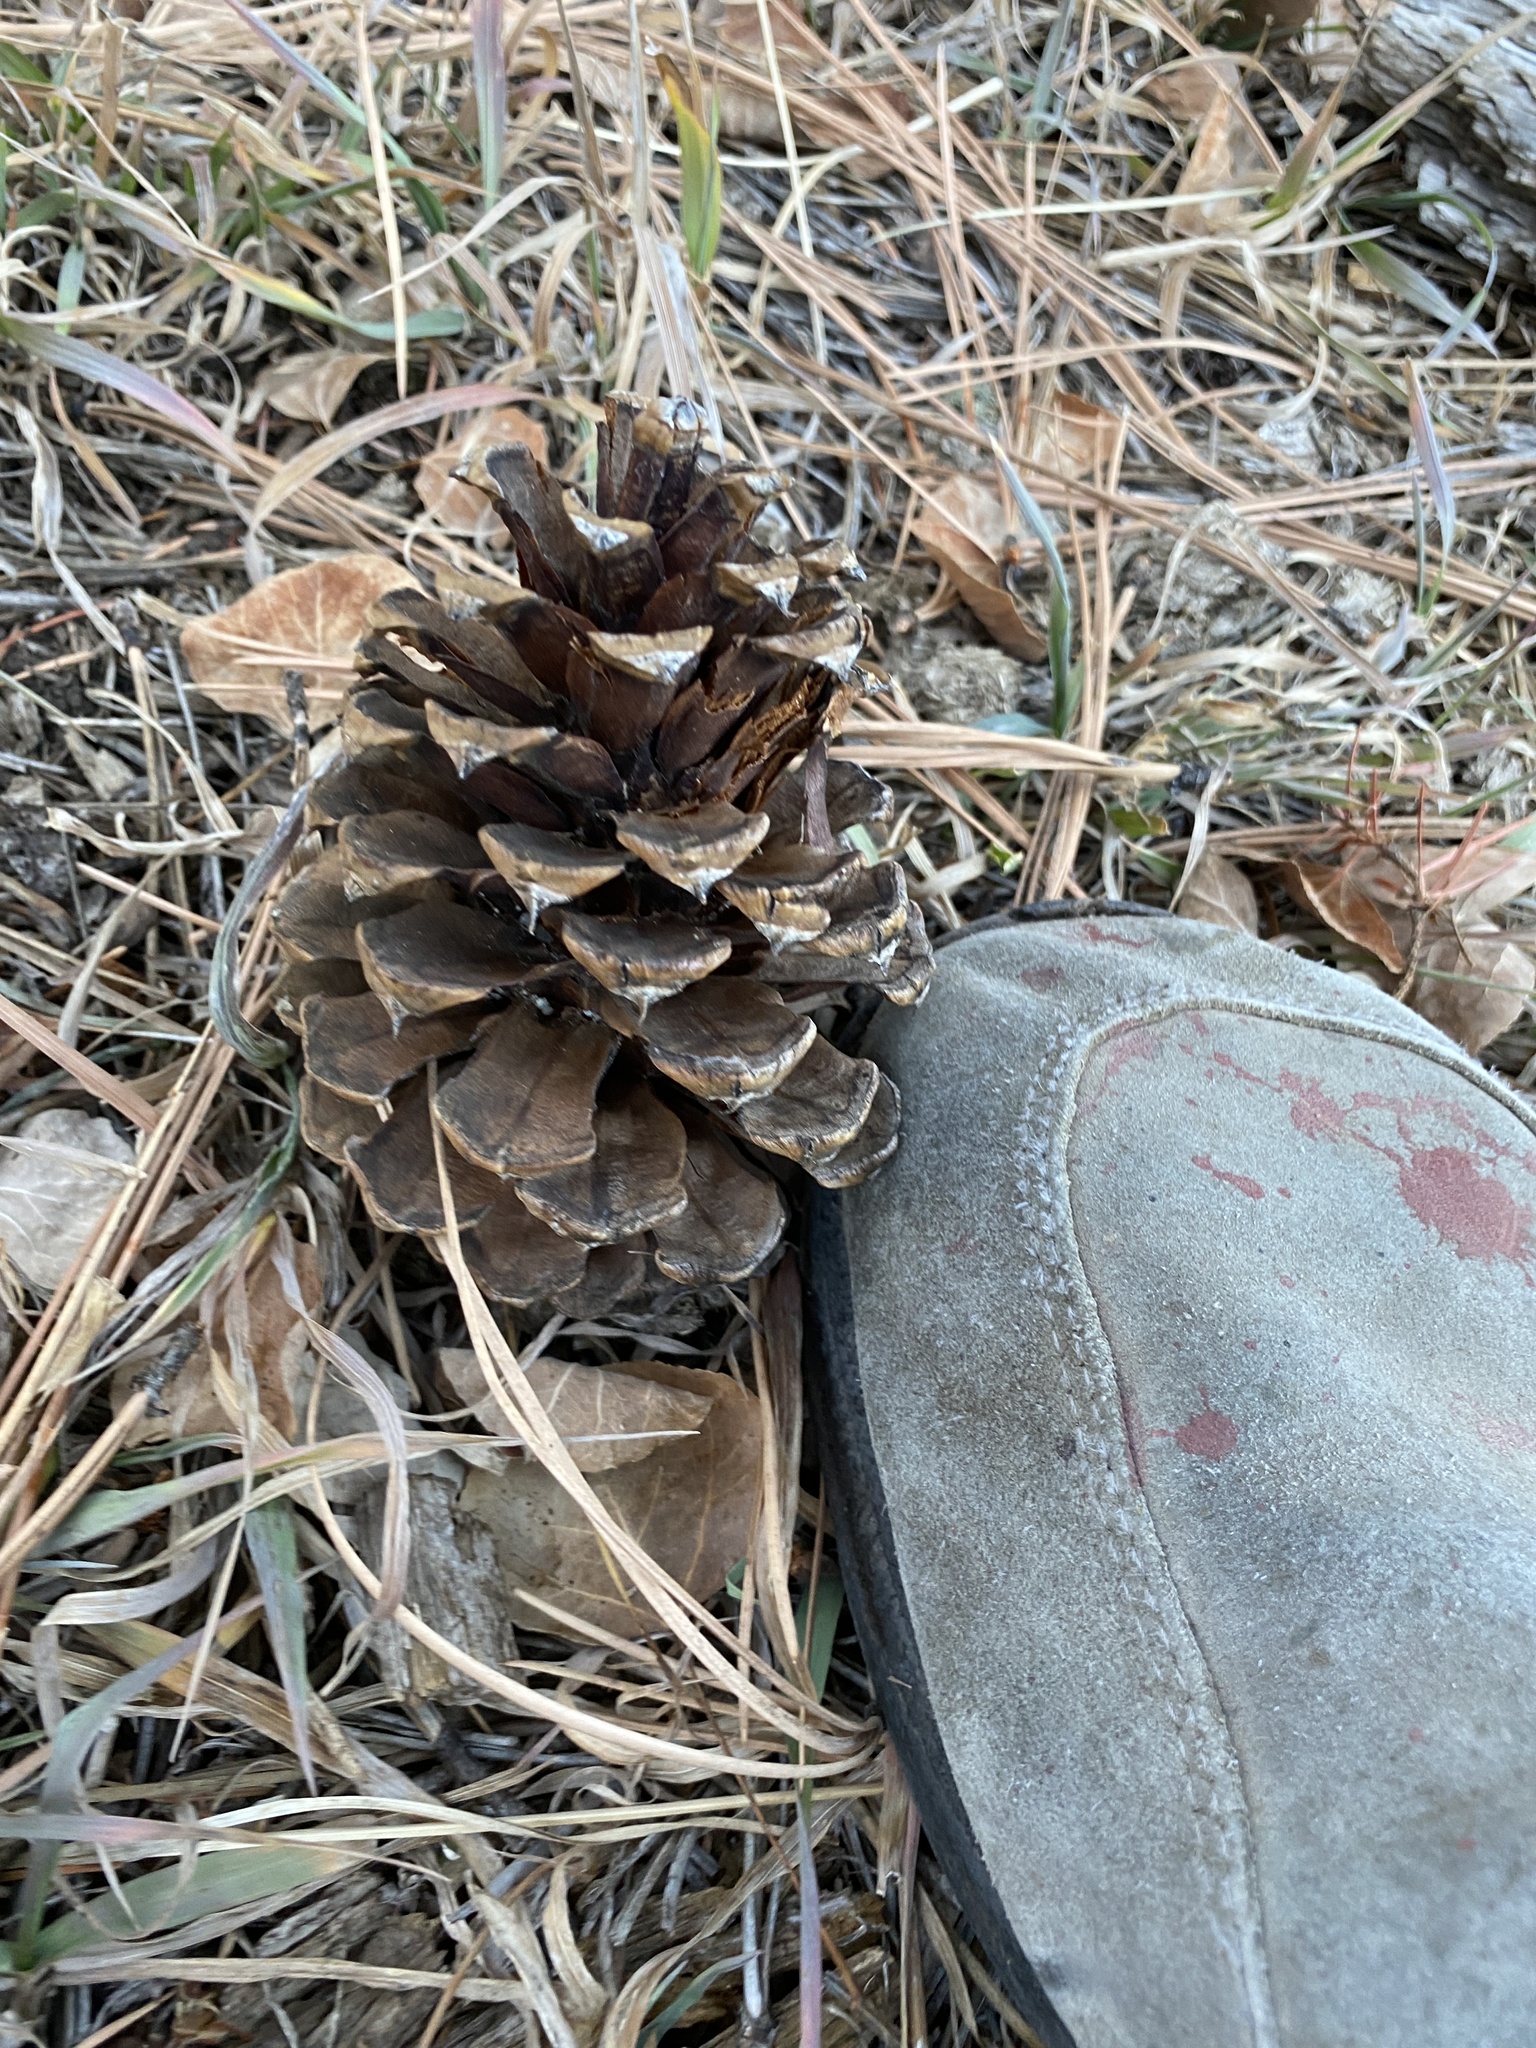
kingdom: Plantae
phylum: Tracheophyta
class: Pinopsida
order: Pinales
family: Pinaceae
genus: Pinus
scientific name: Pinus ponderosa
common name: Western yellow-pine
